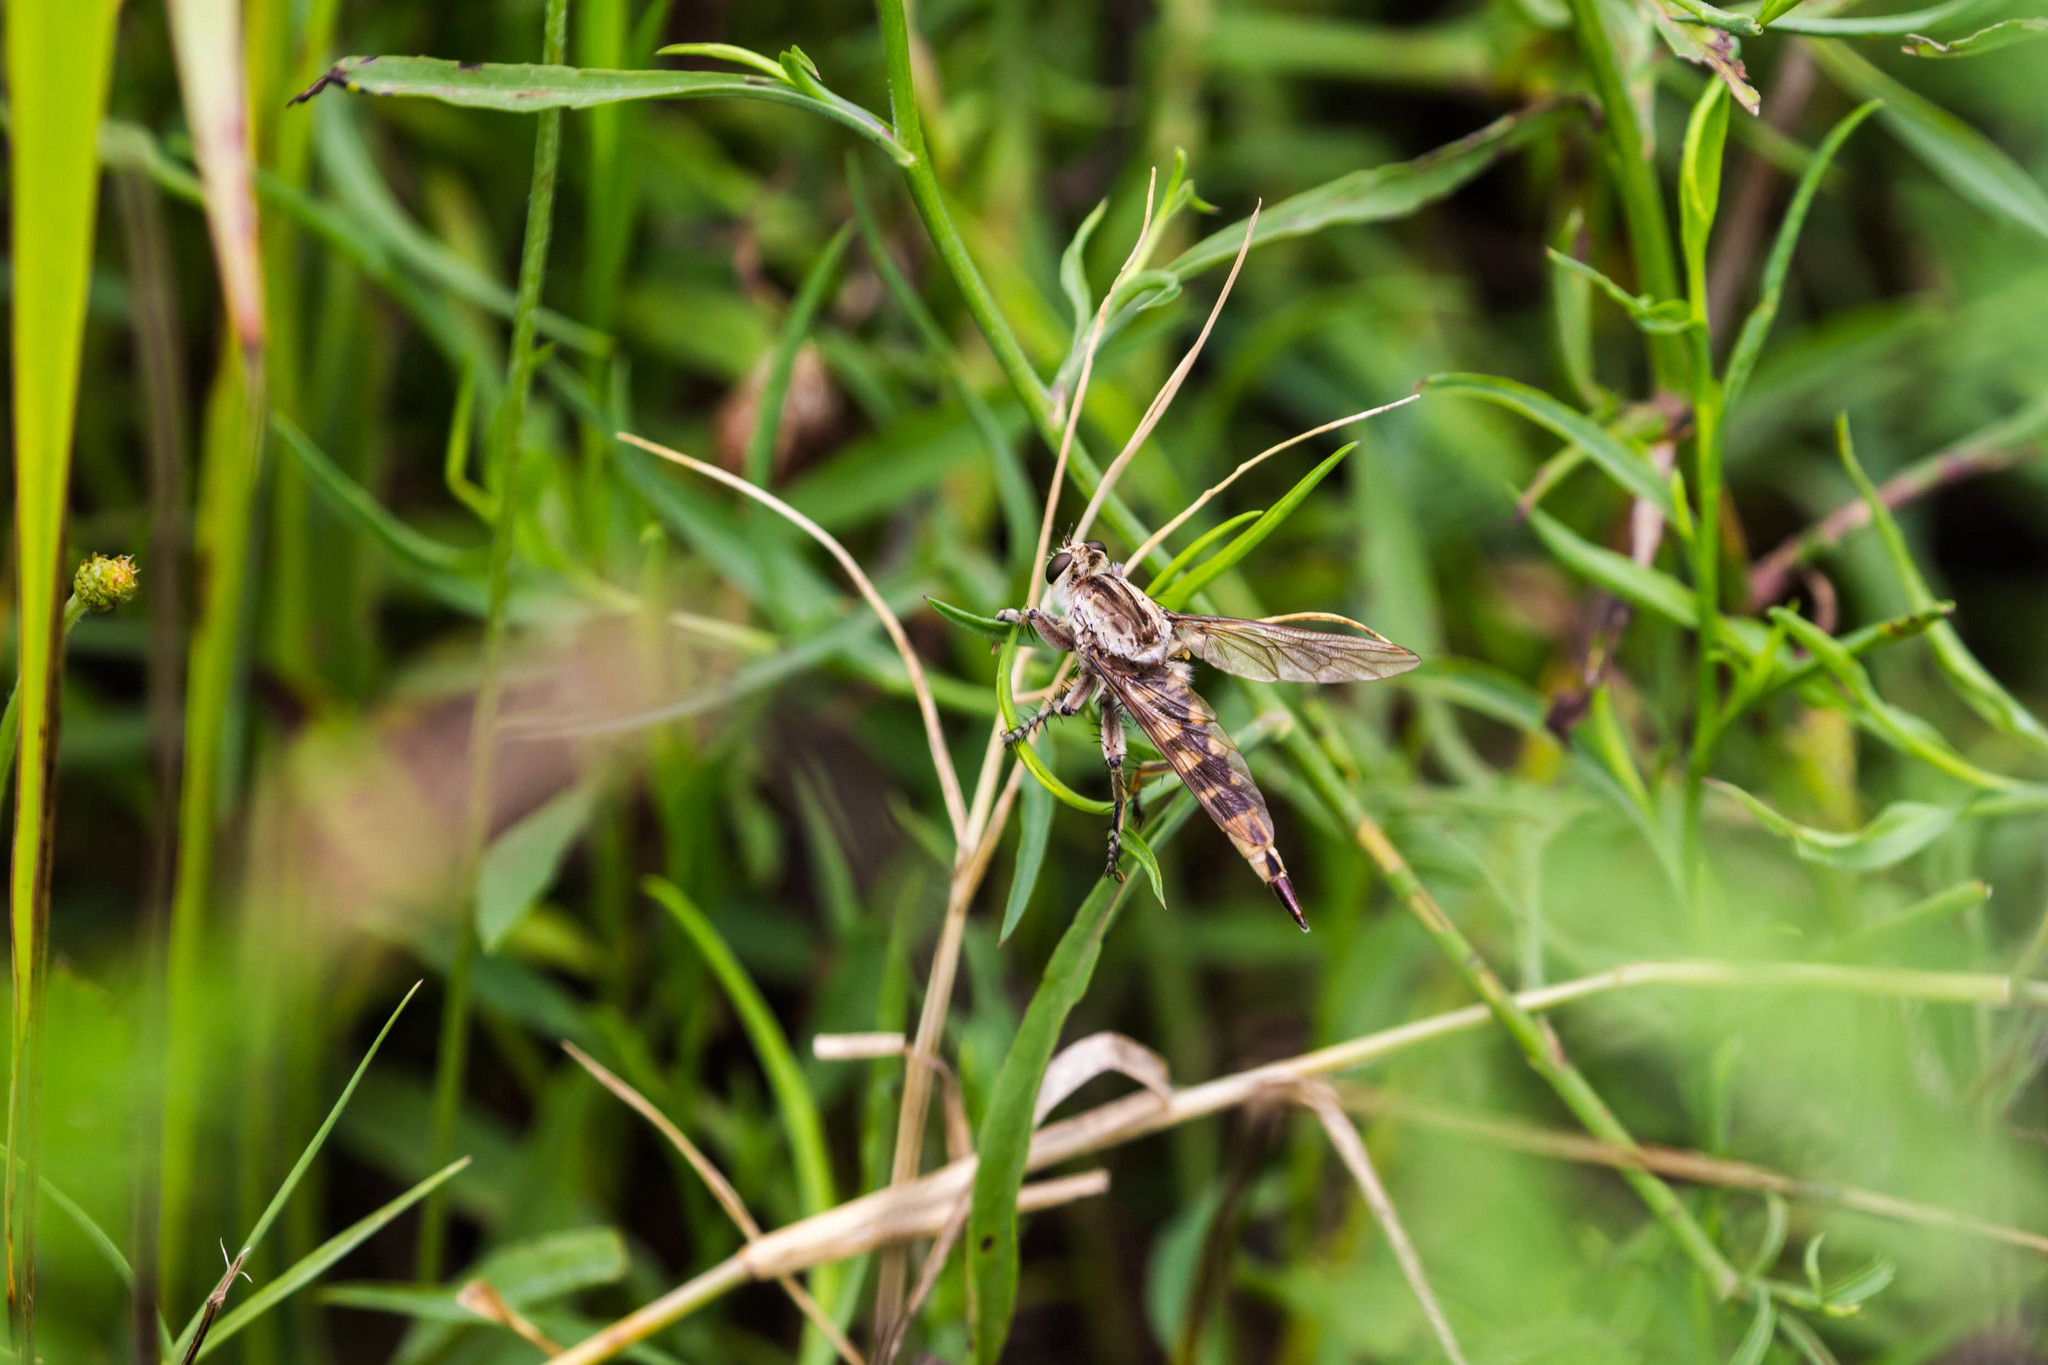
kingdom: Animalia
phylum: Arthropoda
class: Insecta
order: Diptera
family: Asilidae
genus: Triorla
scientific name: Triorla interrupta
